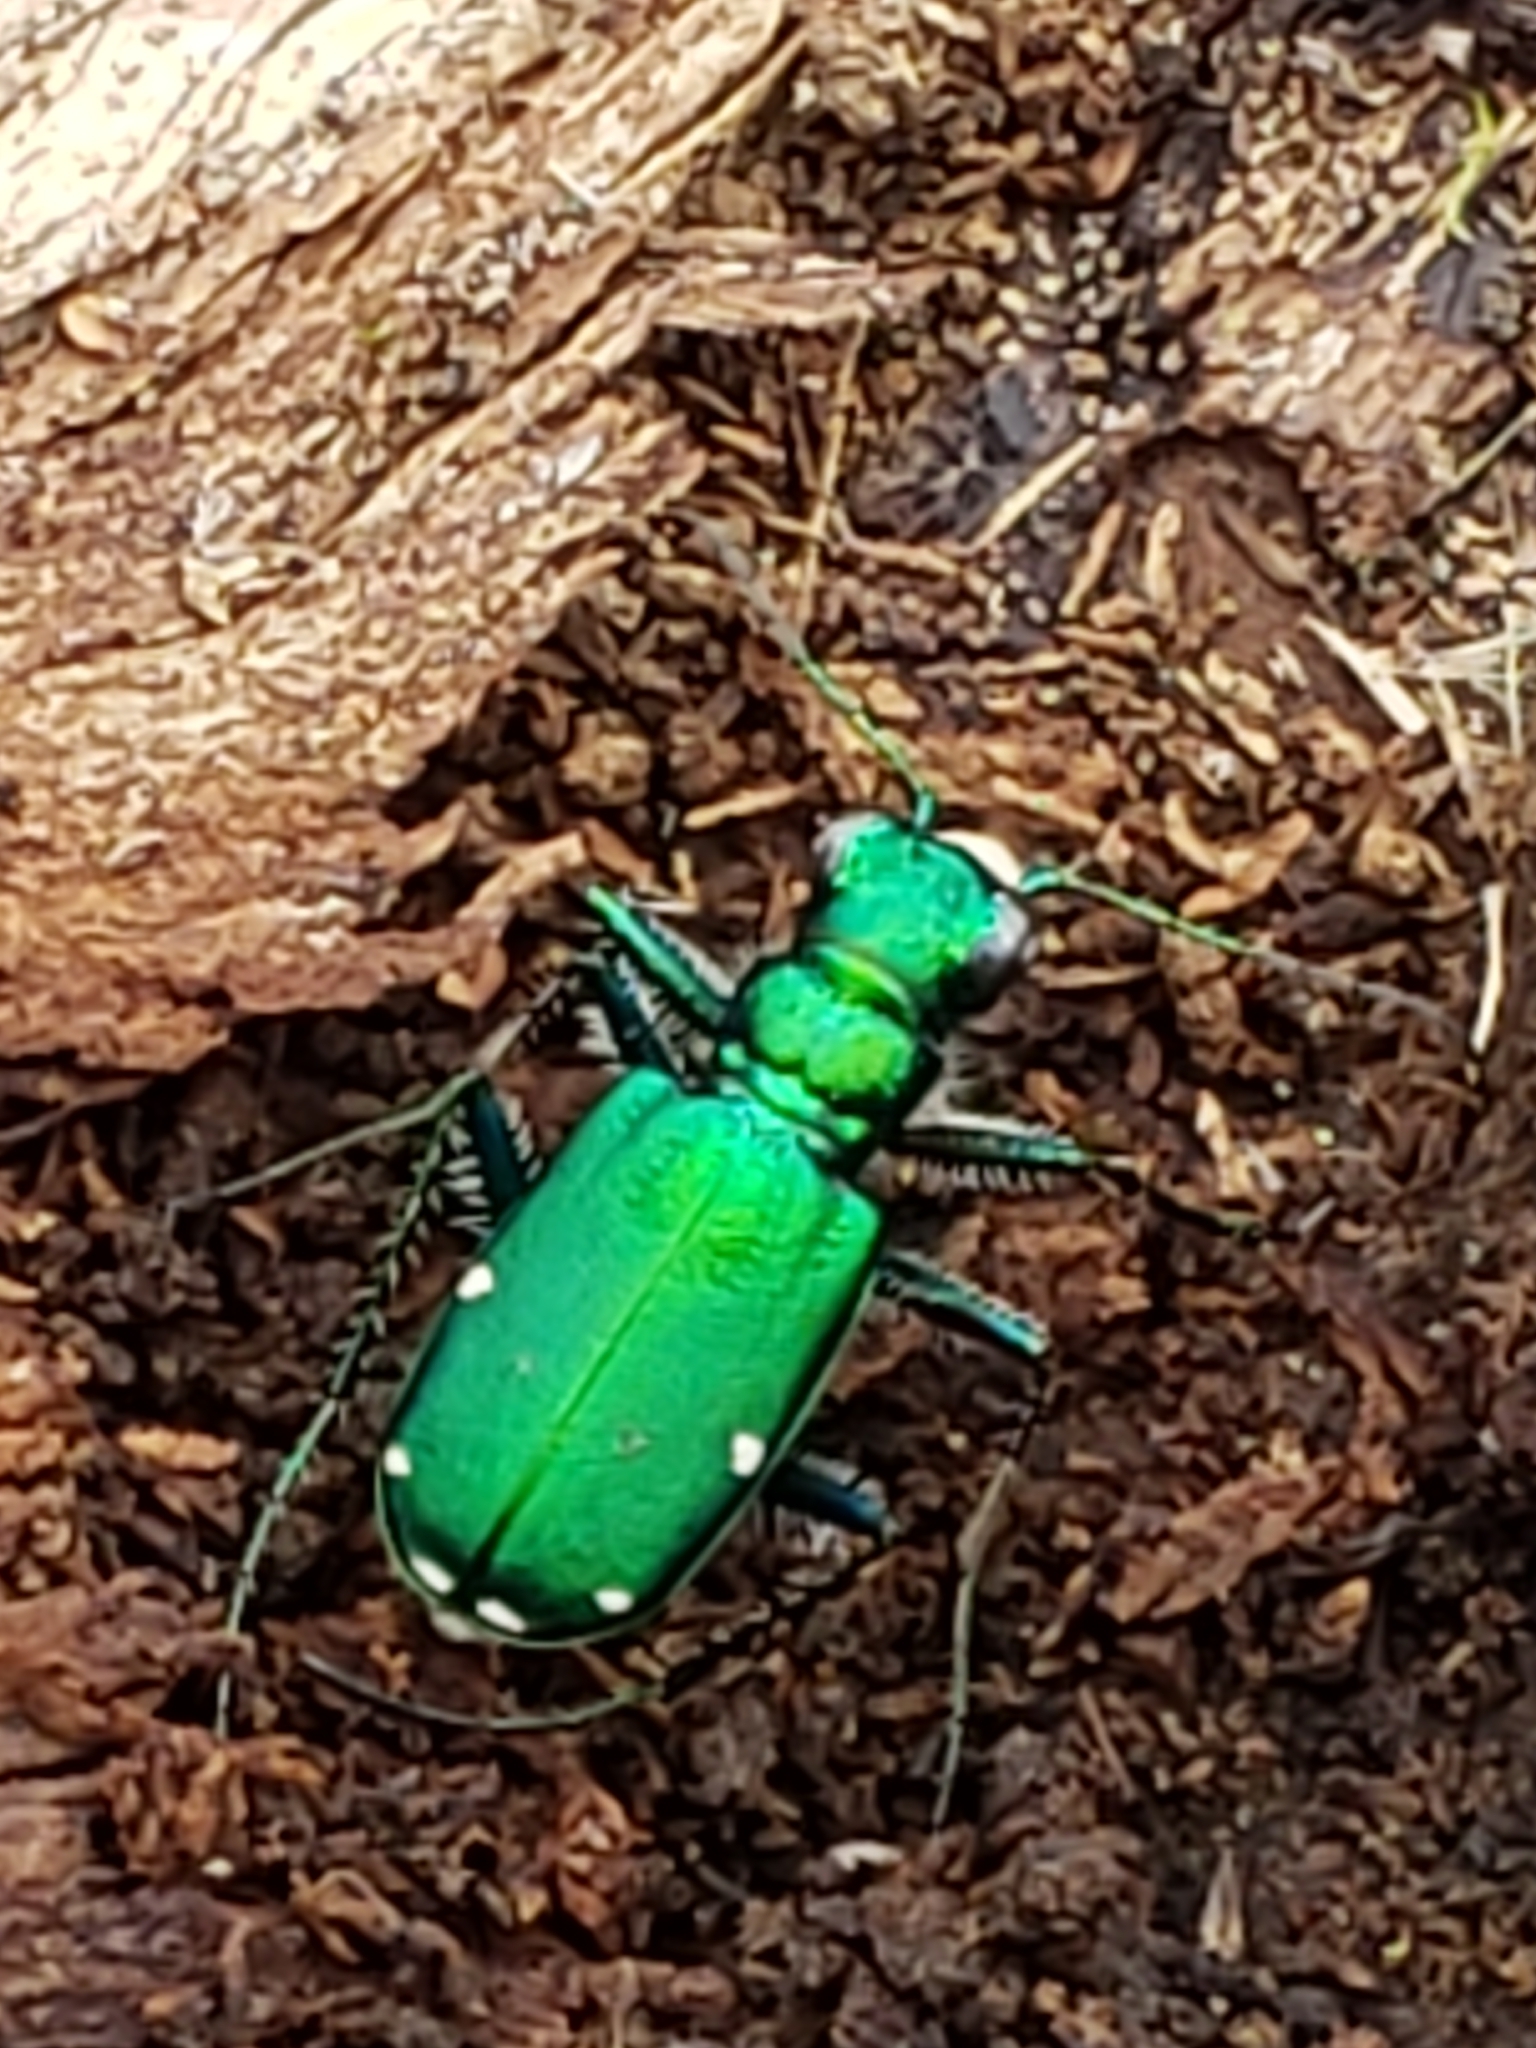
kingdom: Animalia
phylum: Arthropoda
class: Insecta
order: Coleoptera
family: Carabidae
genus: Cicindela
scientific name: Cicindela sexguttata
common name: Six-spotted tiger beetle
